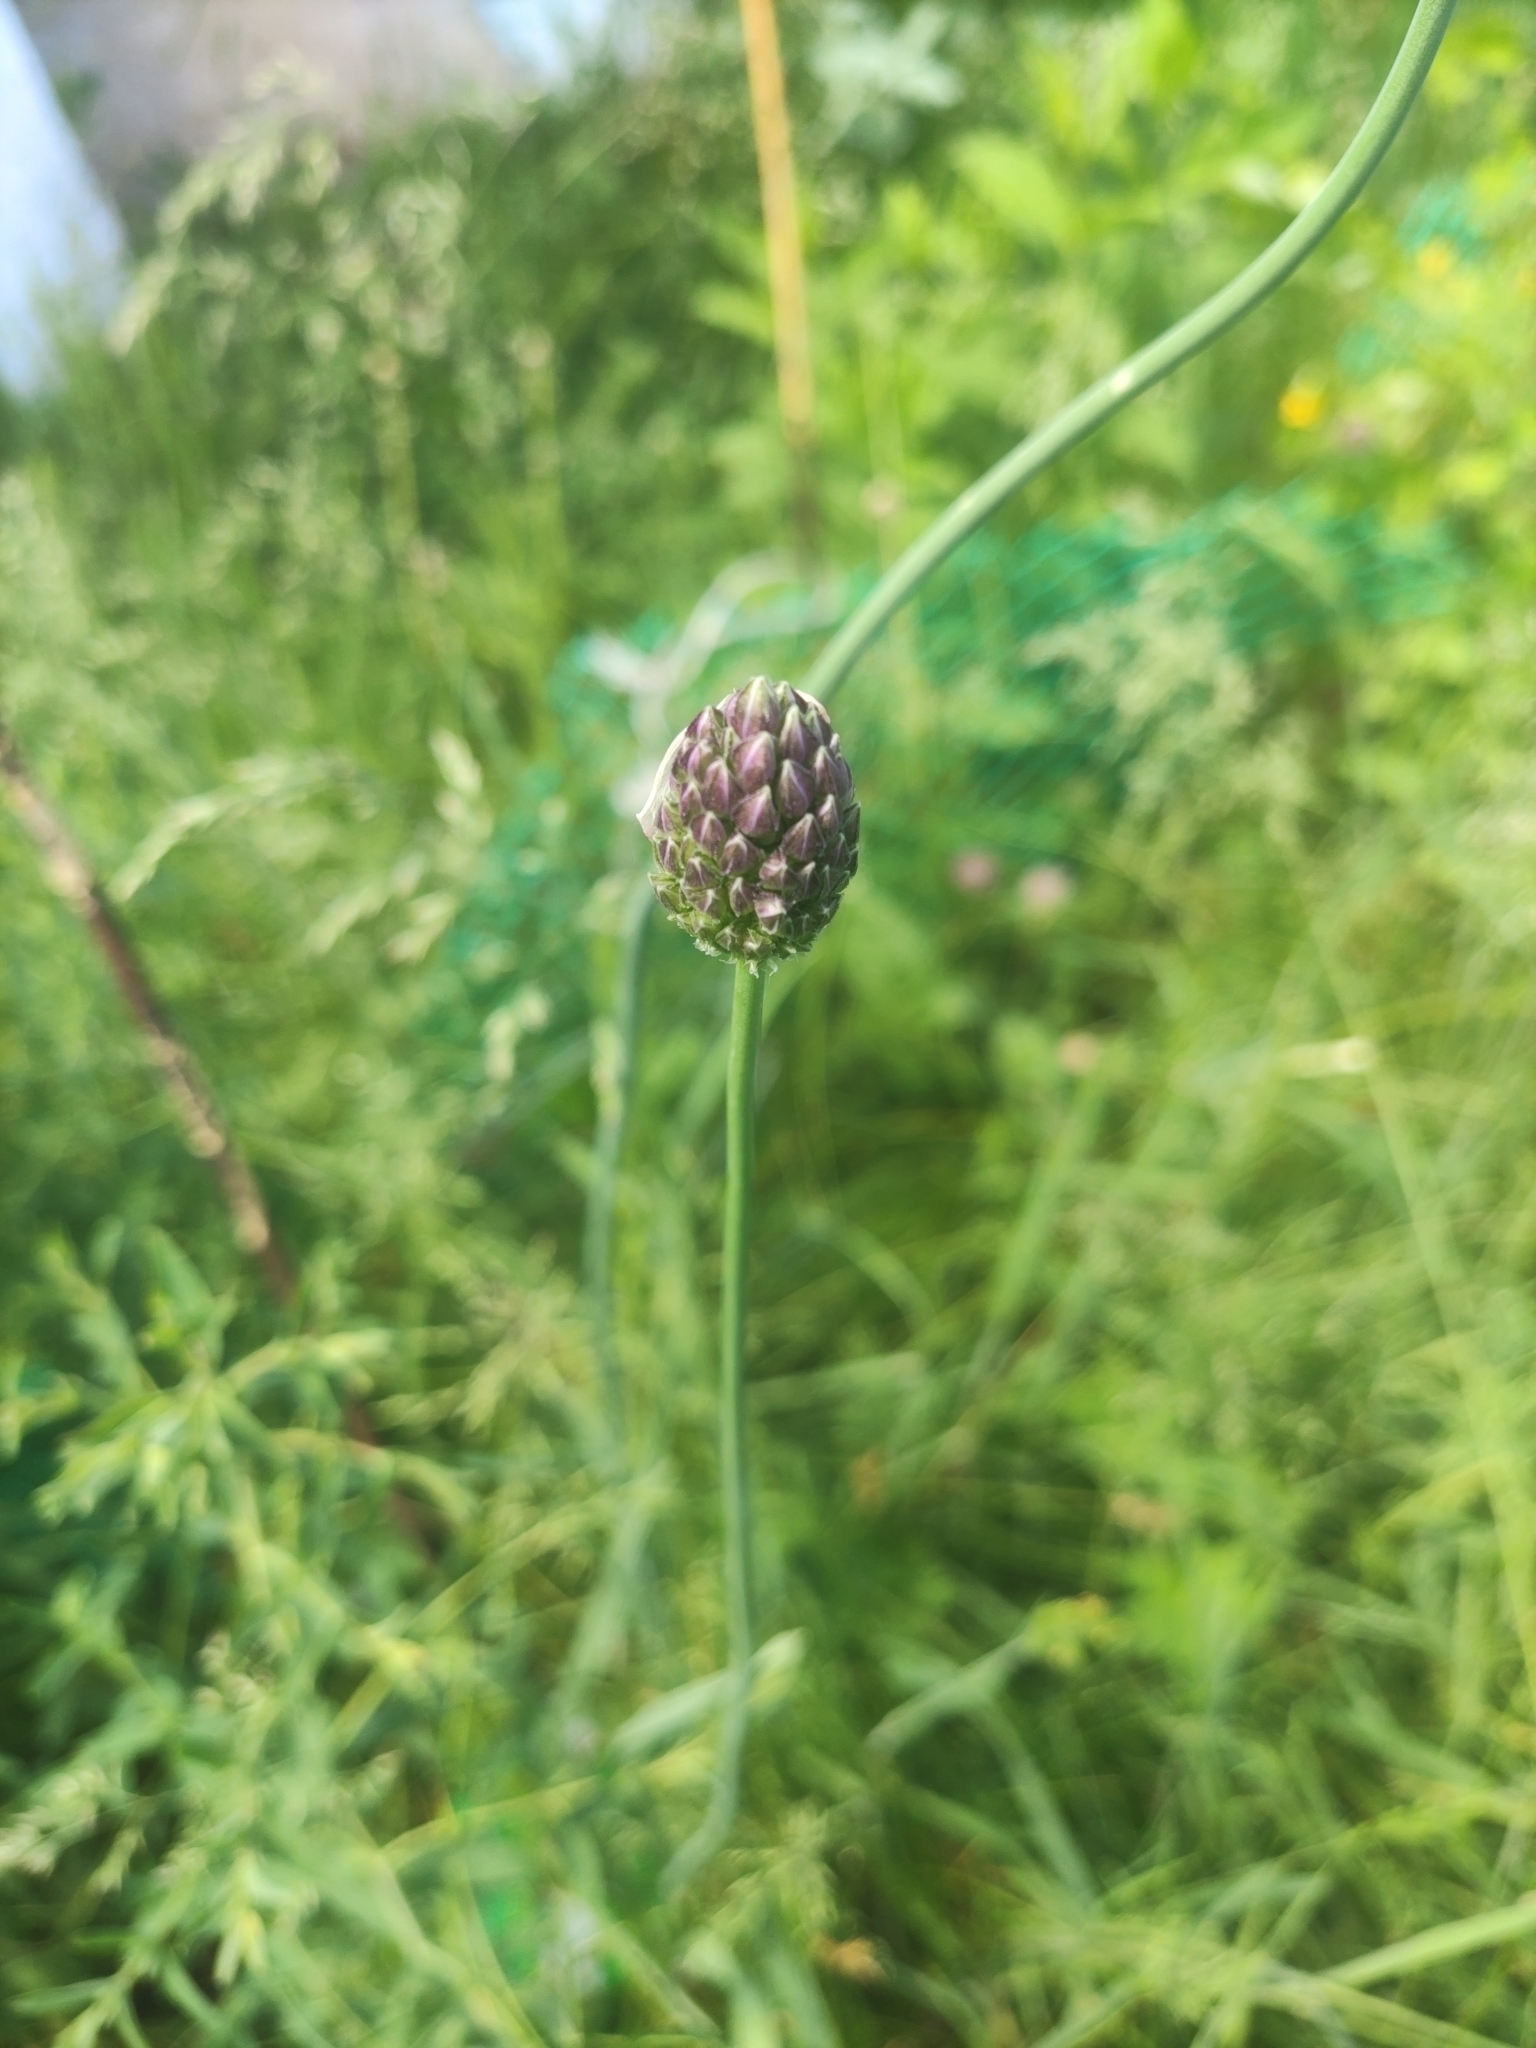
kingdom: Plantae
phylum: Tracheophyta
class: Liliopsida
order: Asparagales
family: Amaryllidaceae
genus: Allium
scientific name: Allium rotundum
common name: Sand leek
